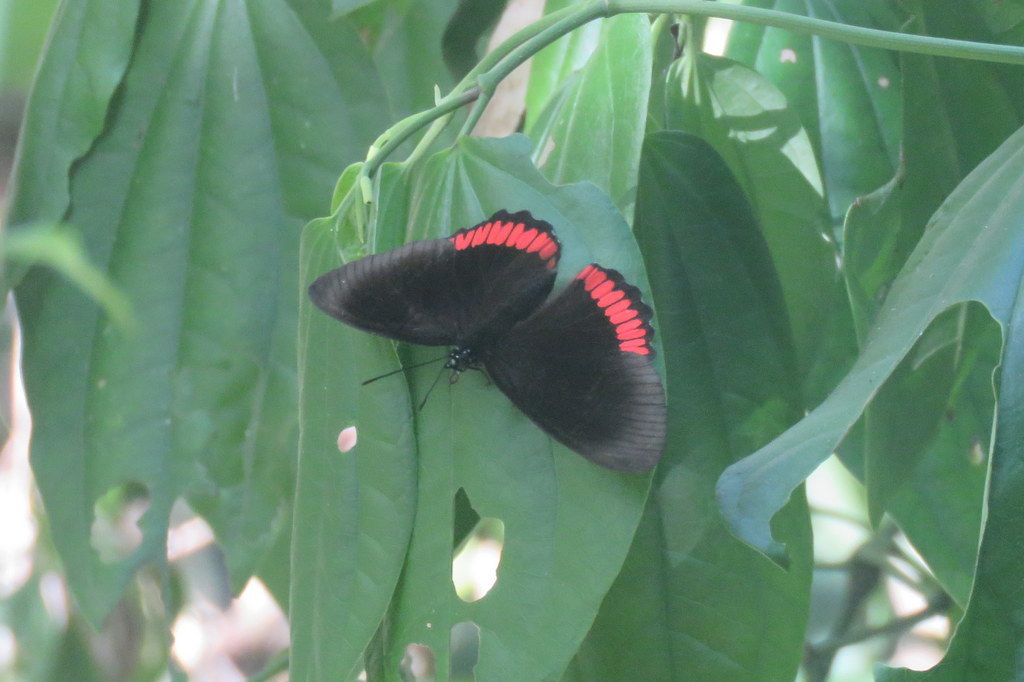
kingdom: Animalia
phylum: Arthropoda
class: Insecta
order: Lepidoptera
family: Sesiidae
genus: Sesia
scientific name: Sesia Biblis hyperia
